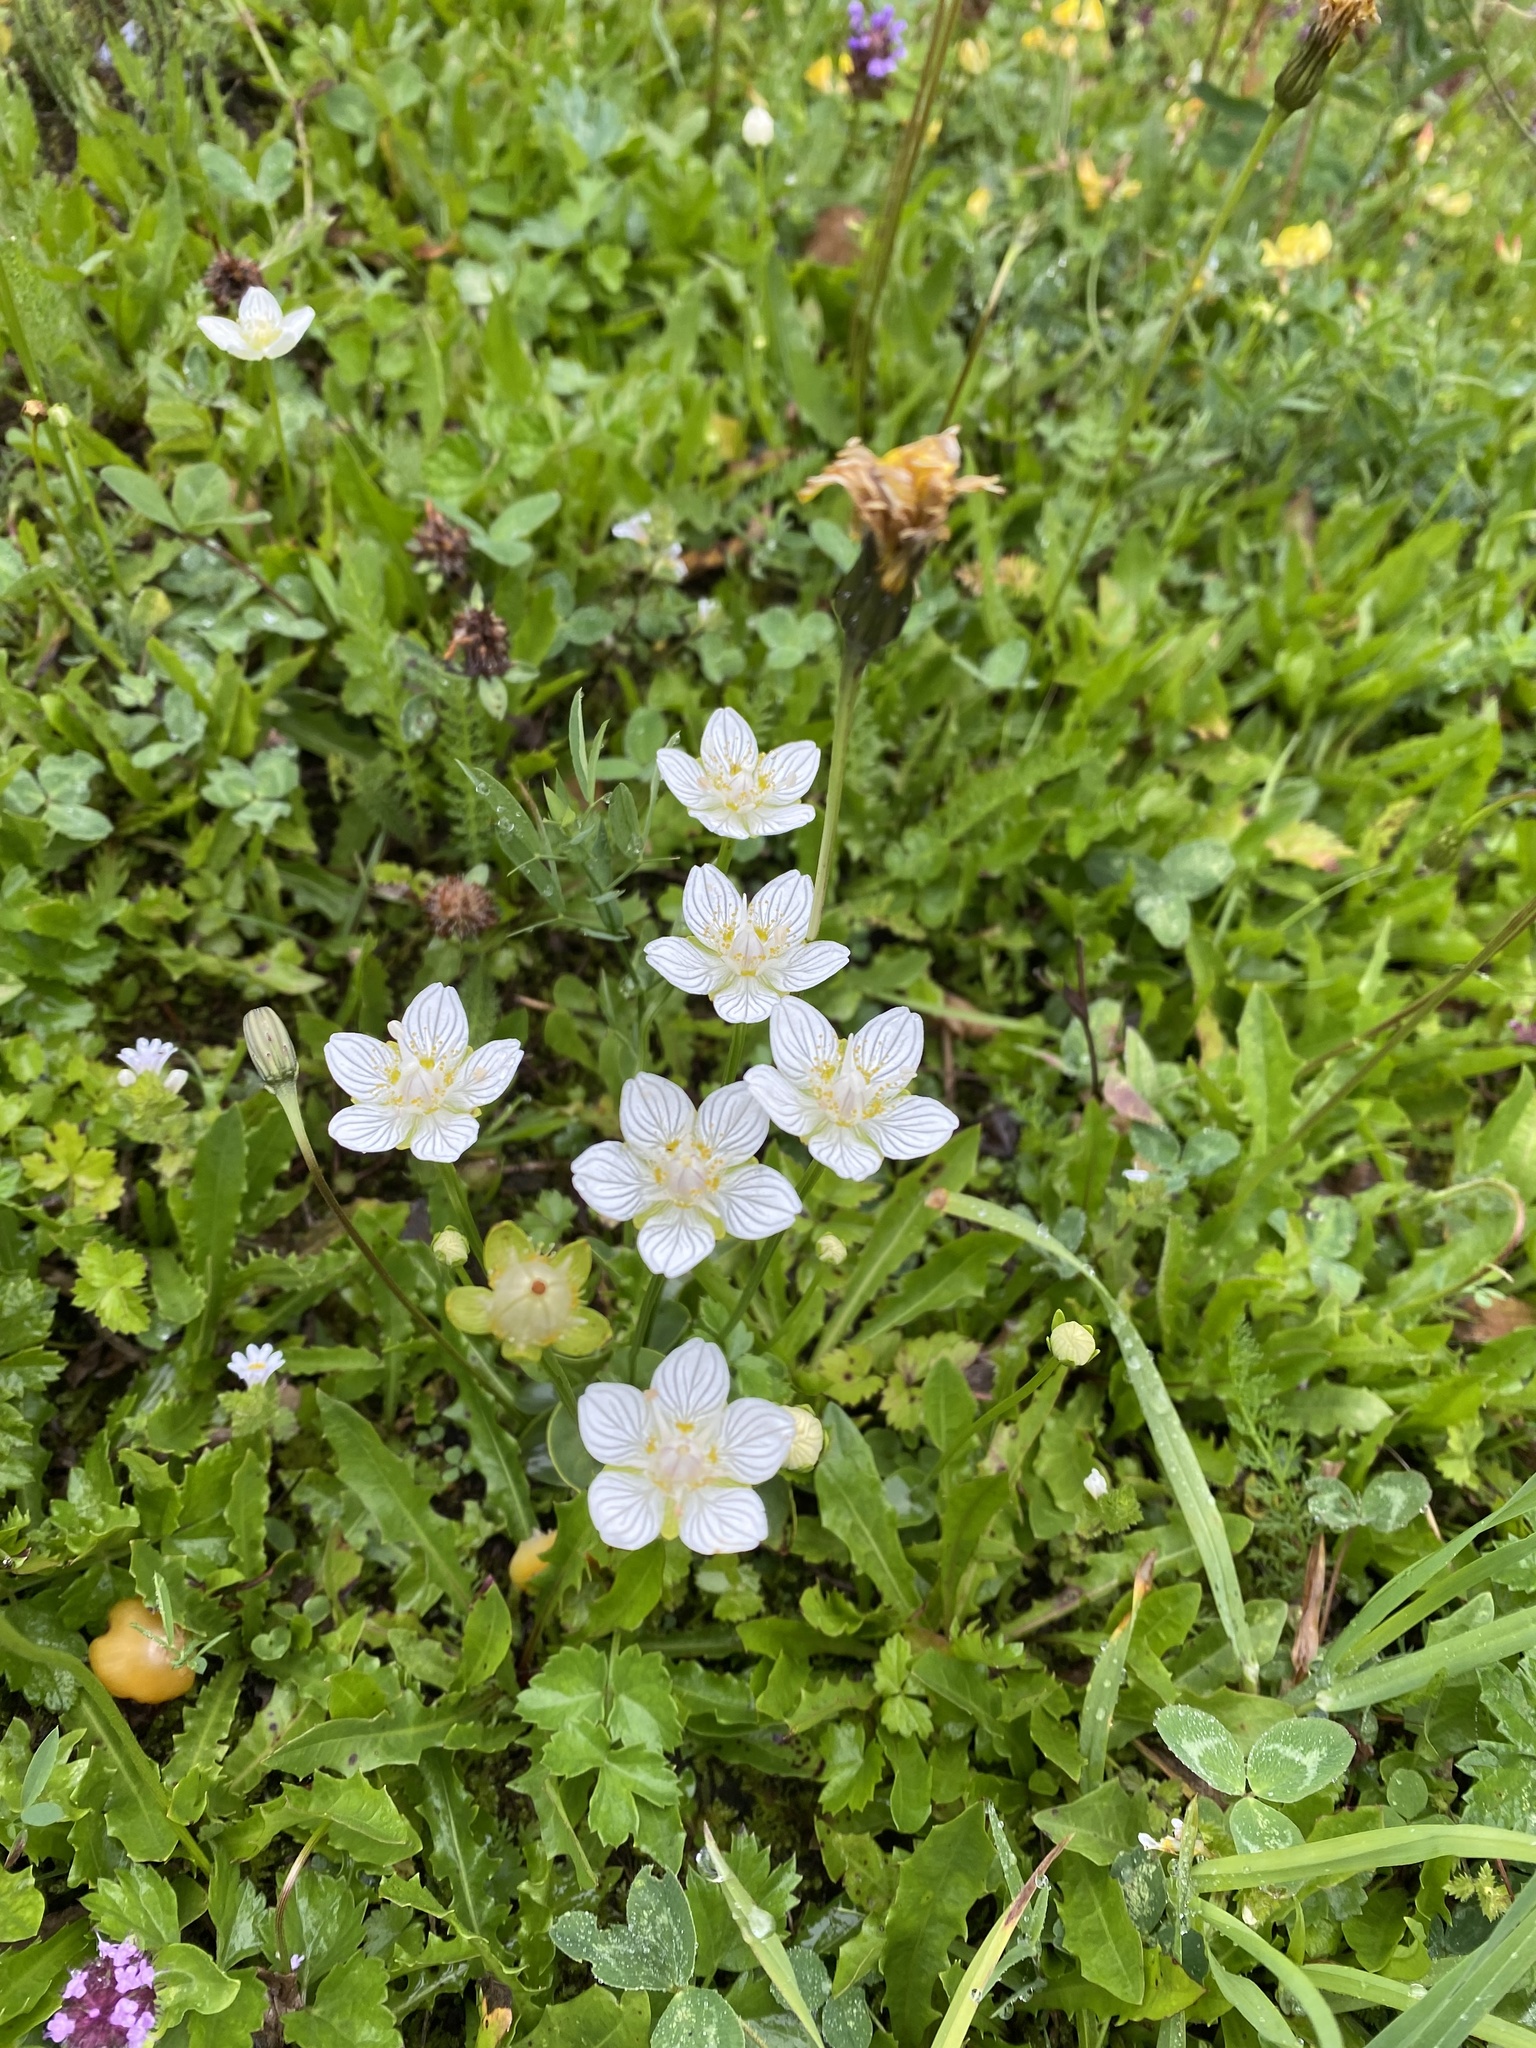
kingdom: Plantae
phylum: Tracheophyta
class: Magnoliopsida
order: Celastrales
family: Parnassiaceae
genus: Parnassia
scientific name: Parnassia palustris
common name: Grass-of-parnassus
